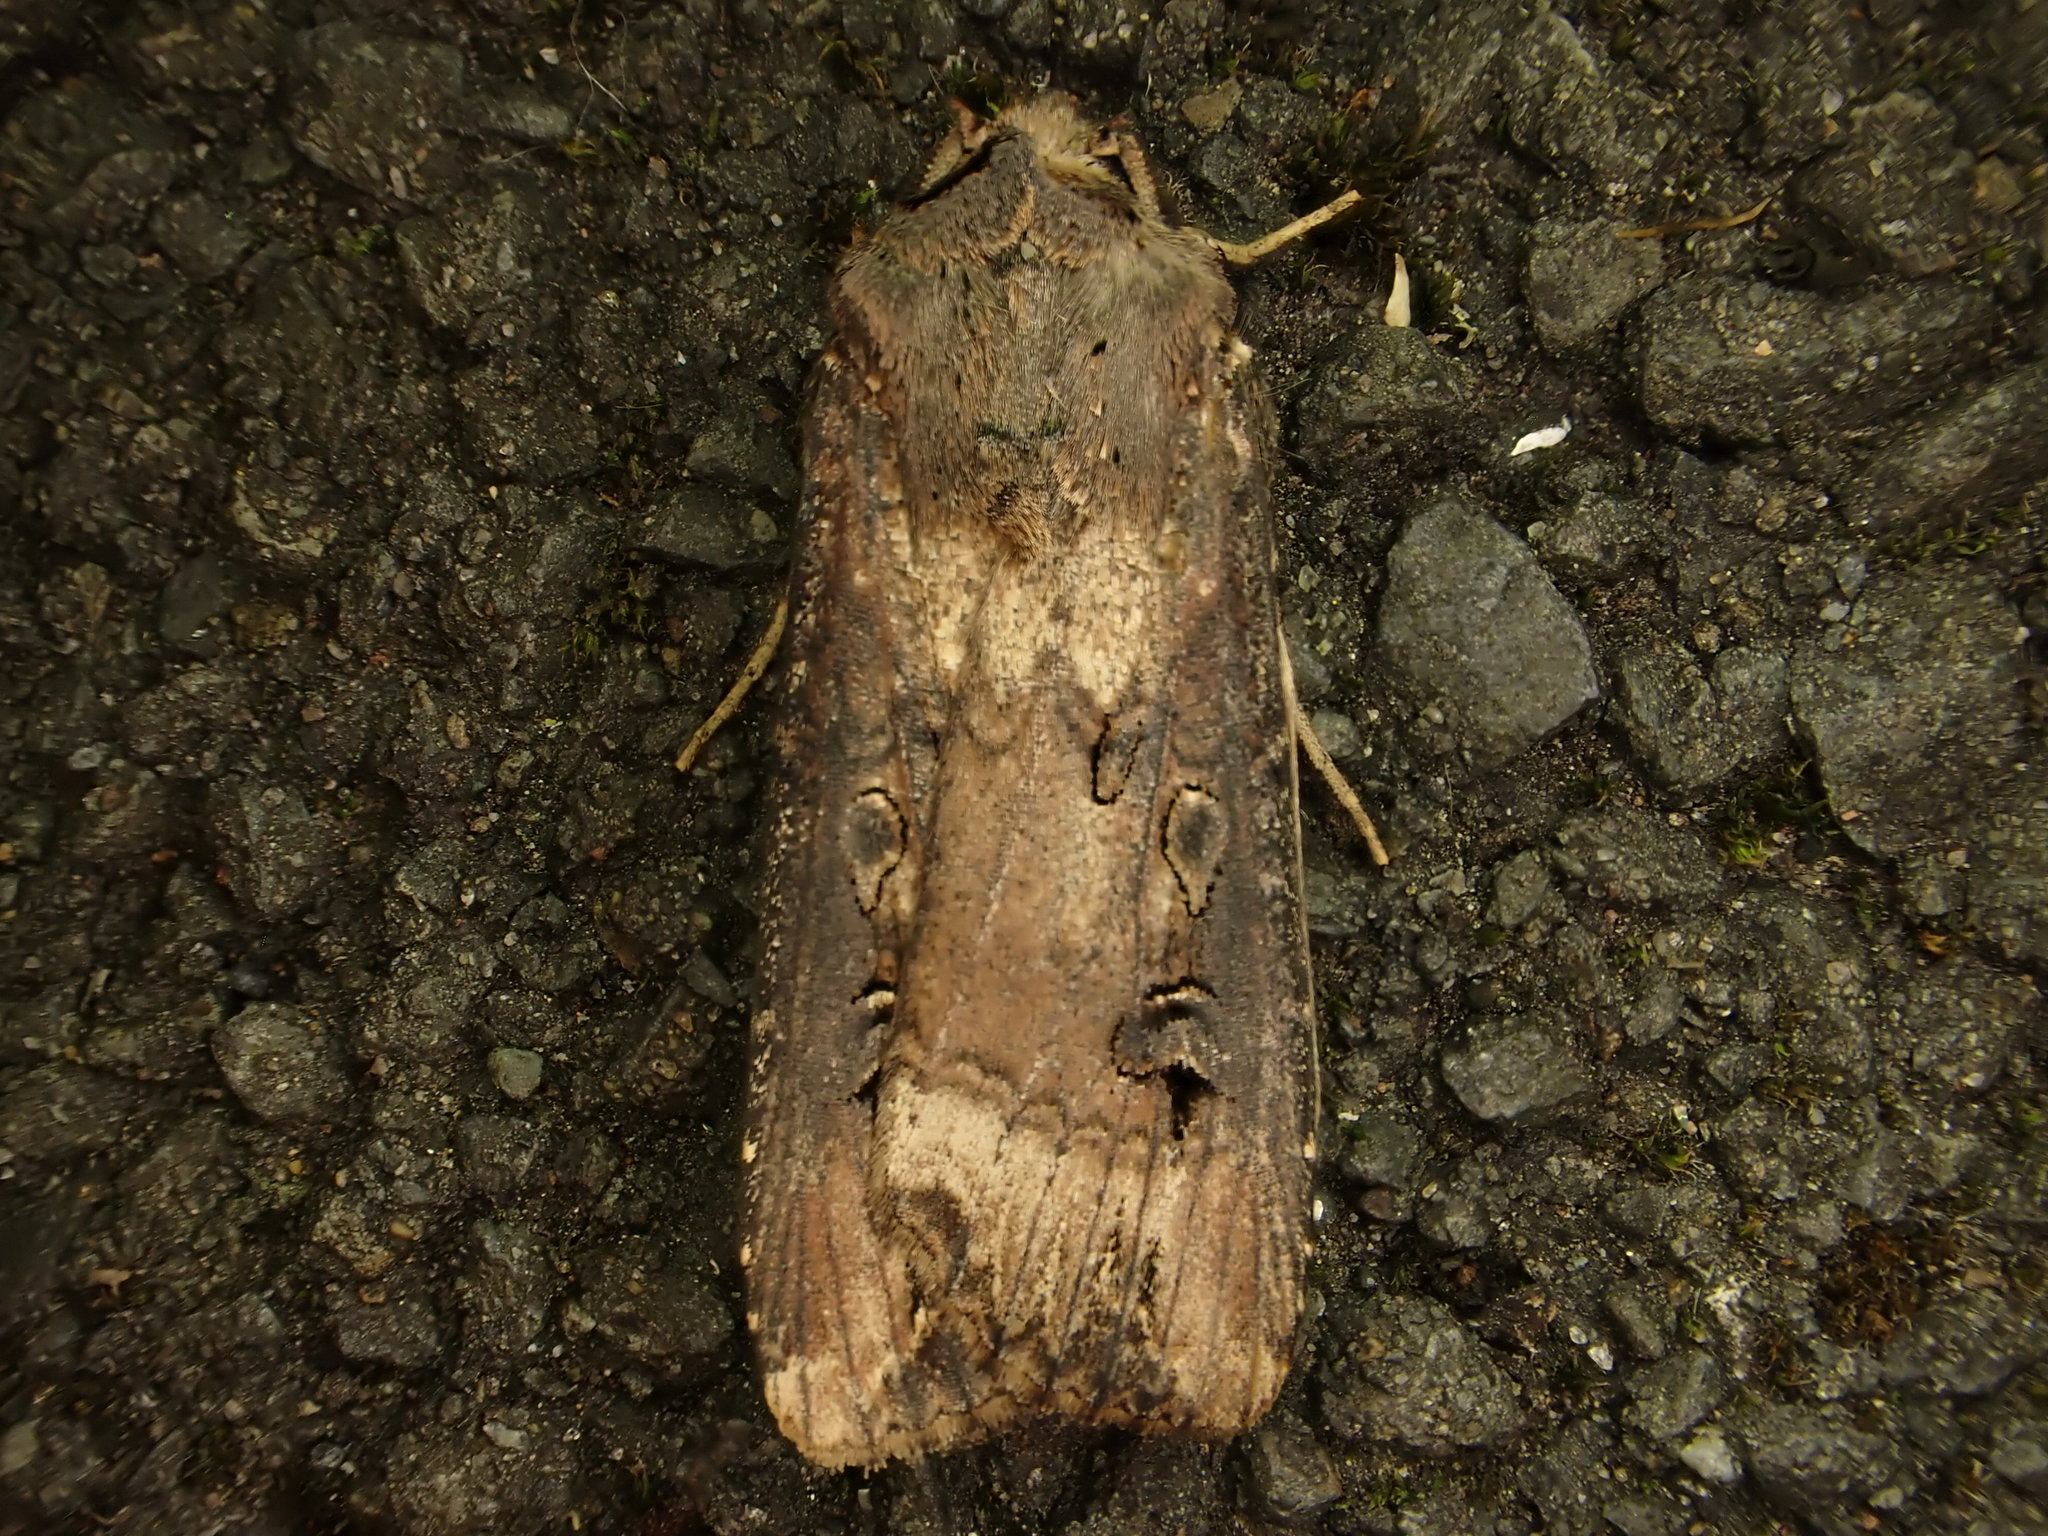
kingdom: Animalia
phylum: Arthropoda
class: Insecta
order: Lepidoptera
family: Noctuidae
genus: Agrotis
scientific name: Agrotis ipsilon
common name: Dark sword-grass
